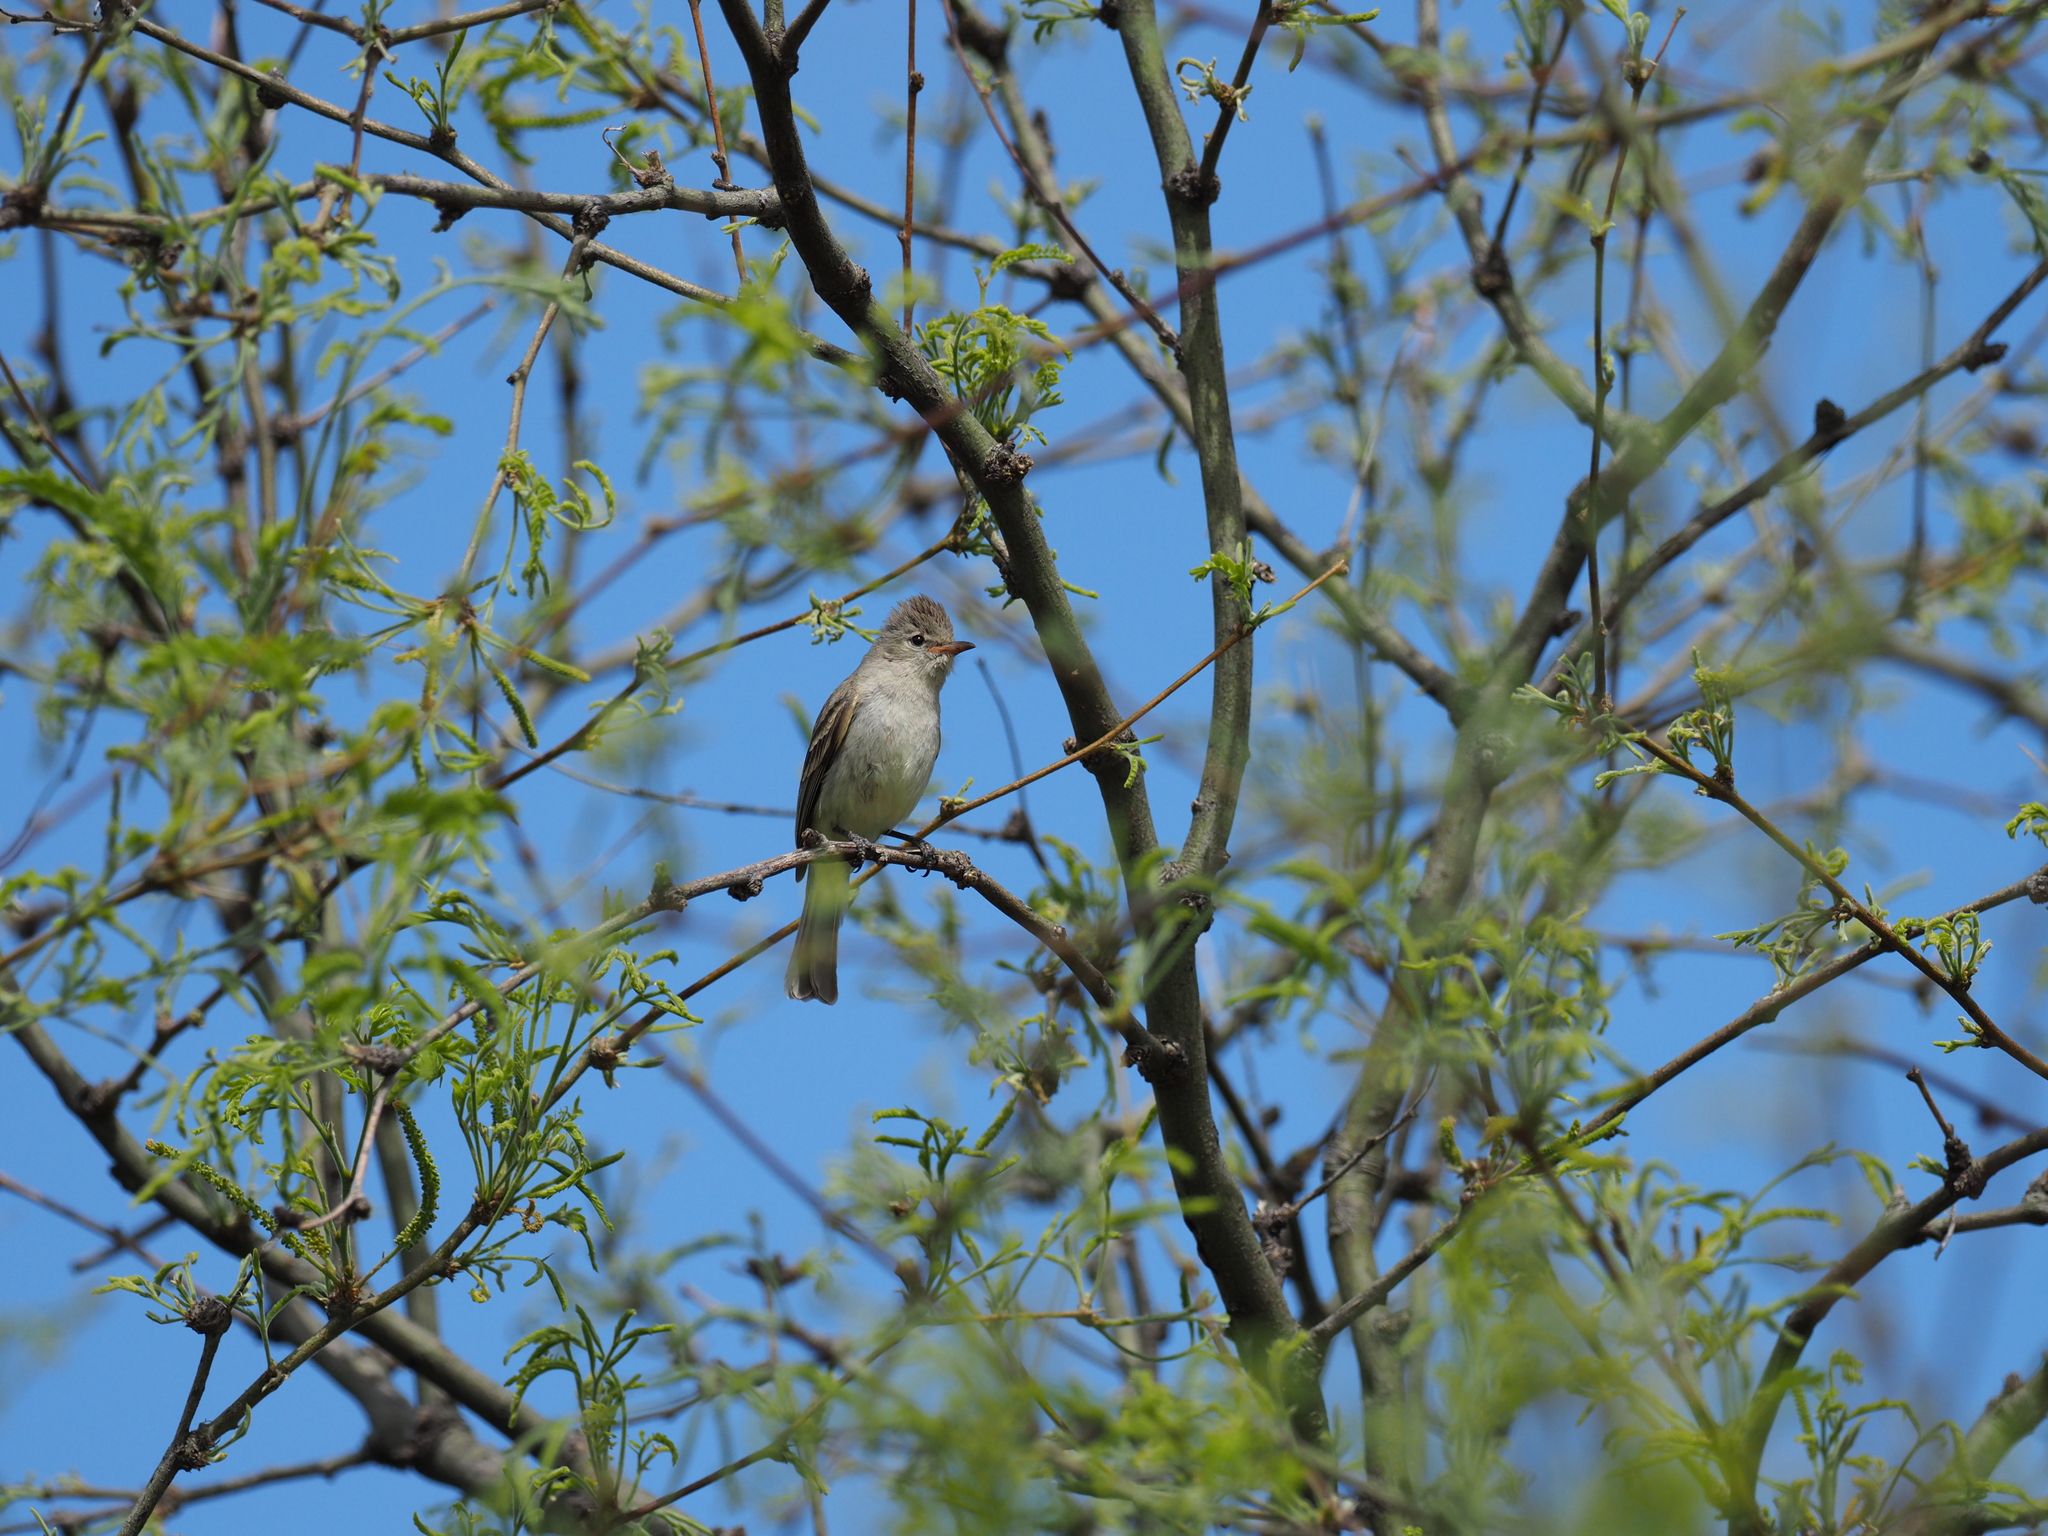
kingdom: Animalia
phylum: Chordata
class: Aves
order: Passeriformes
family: Tyrannidae
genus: Camptostoma
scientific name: Camptostoma imberbe
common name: Northern beardless-tyrannulet
